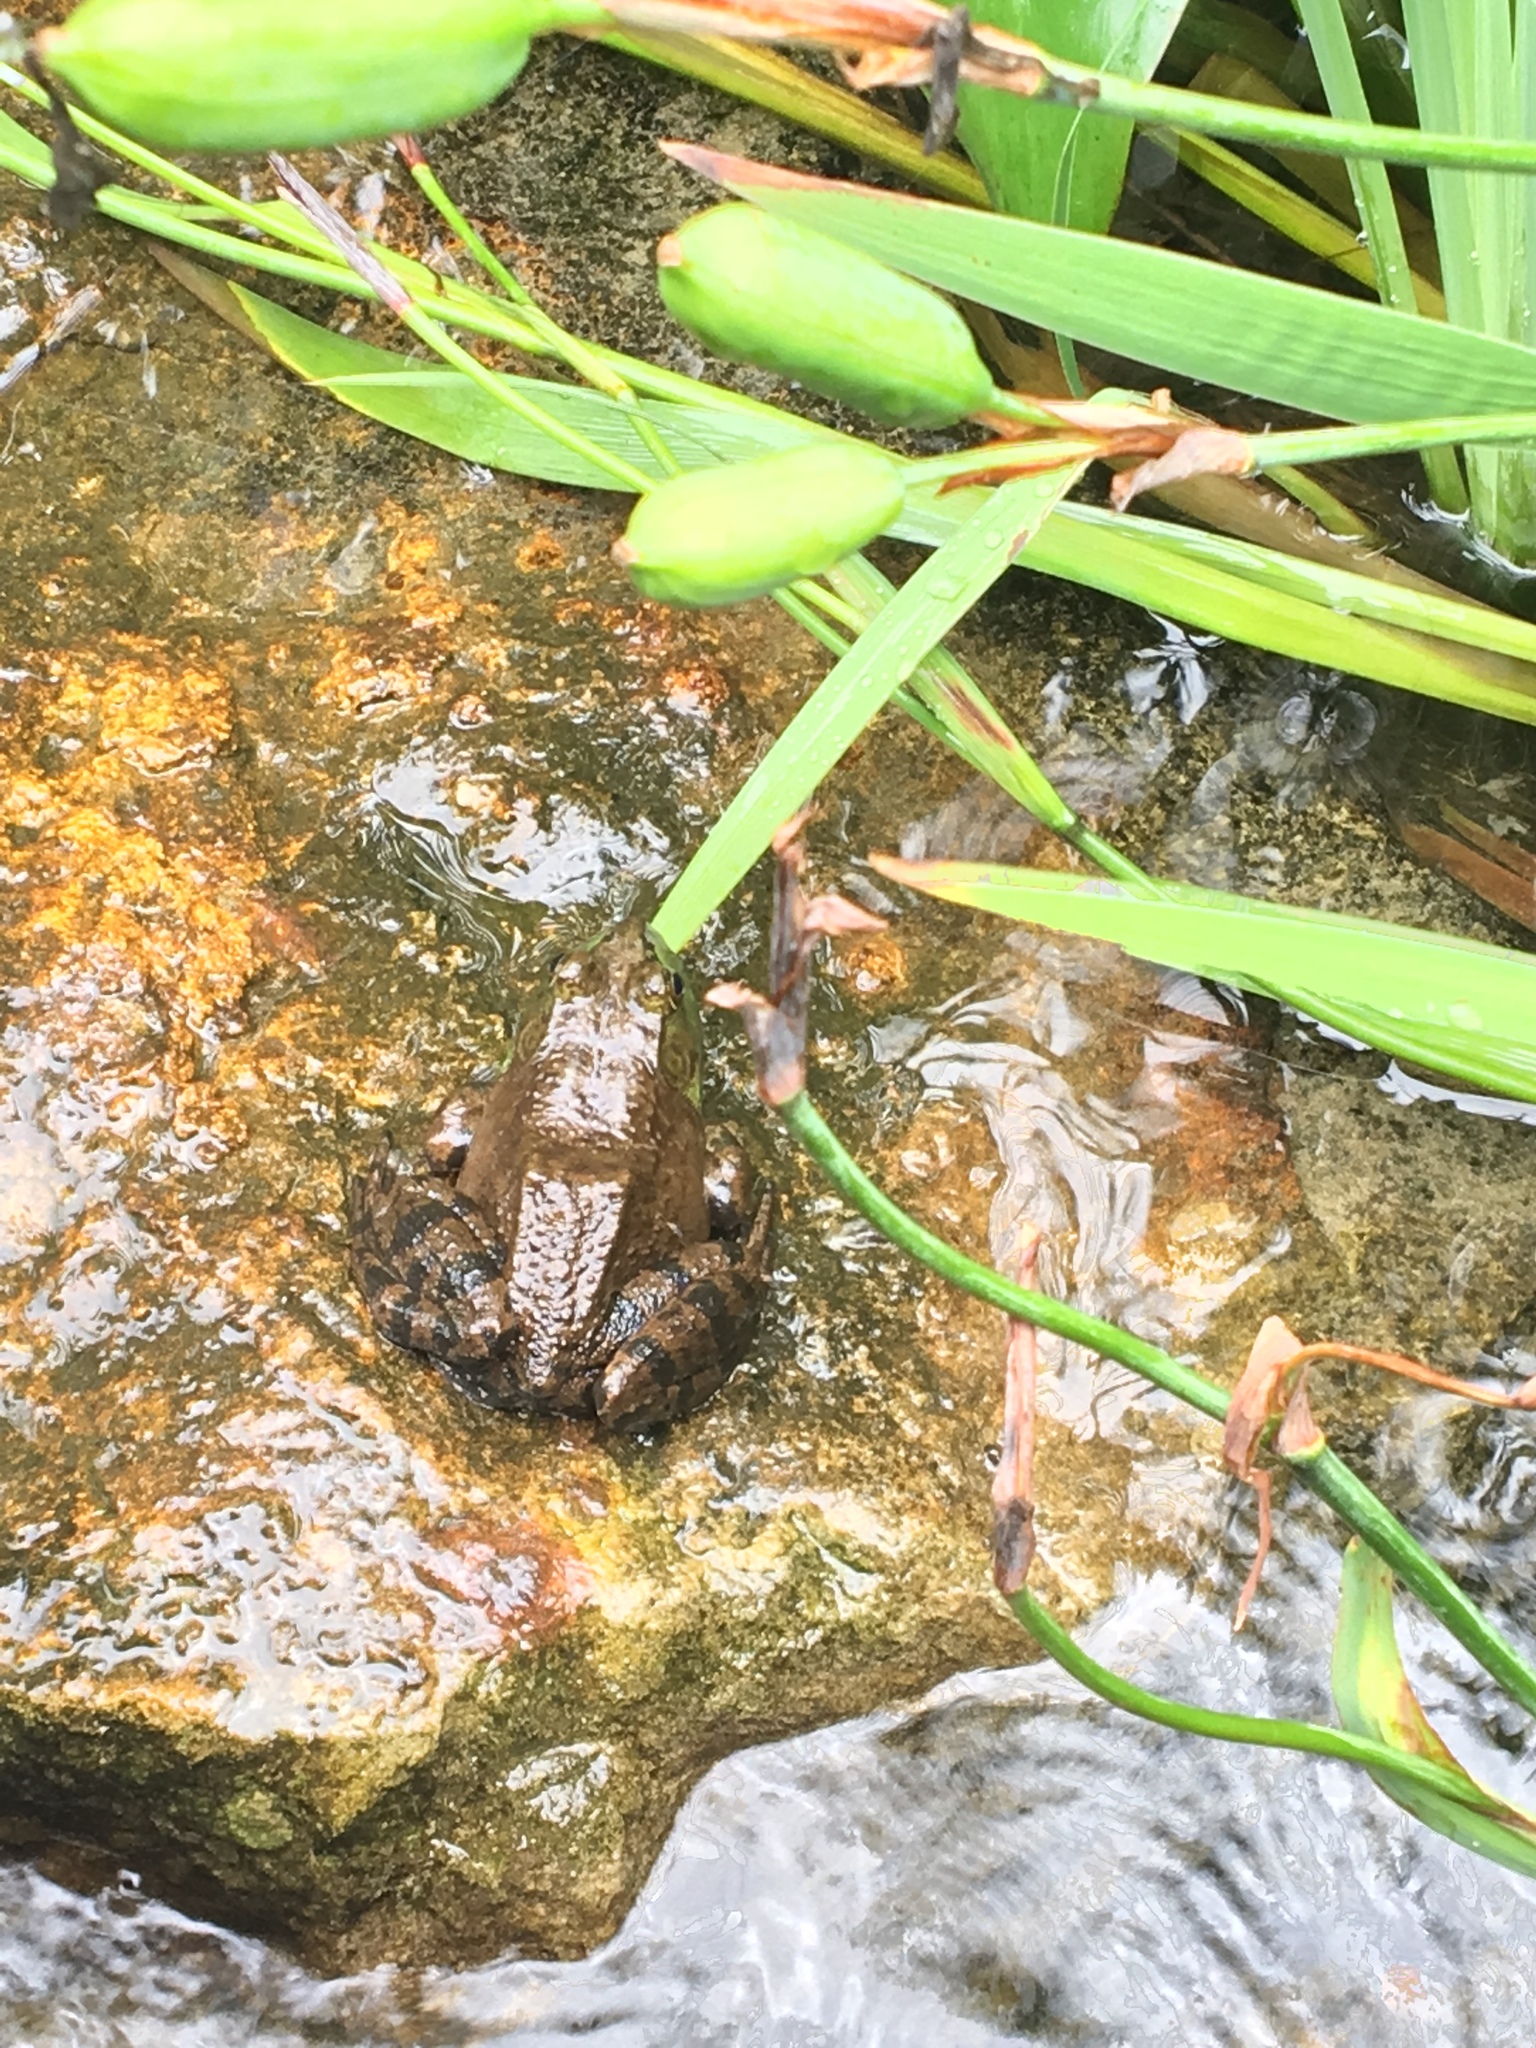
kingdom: Animalia
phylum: Chordata
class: Amphibia
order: Anura
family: Ranidae
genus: Lithobates
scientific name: Lithobates catesbeianus
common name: American bullfrog
